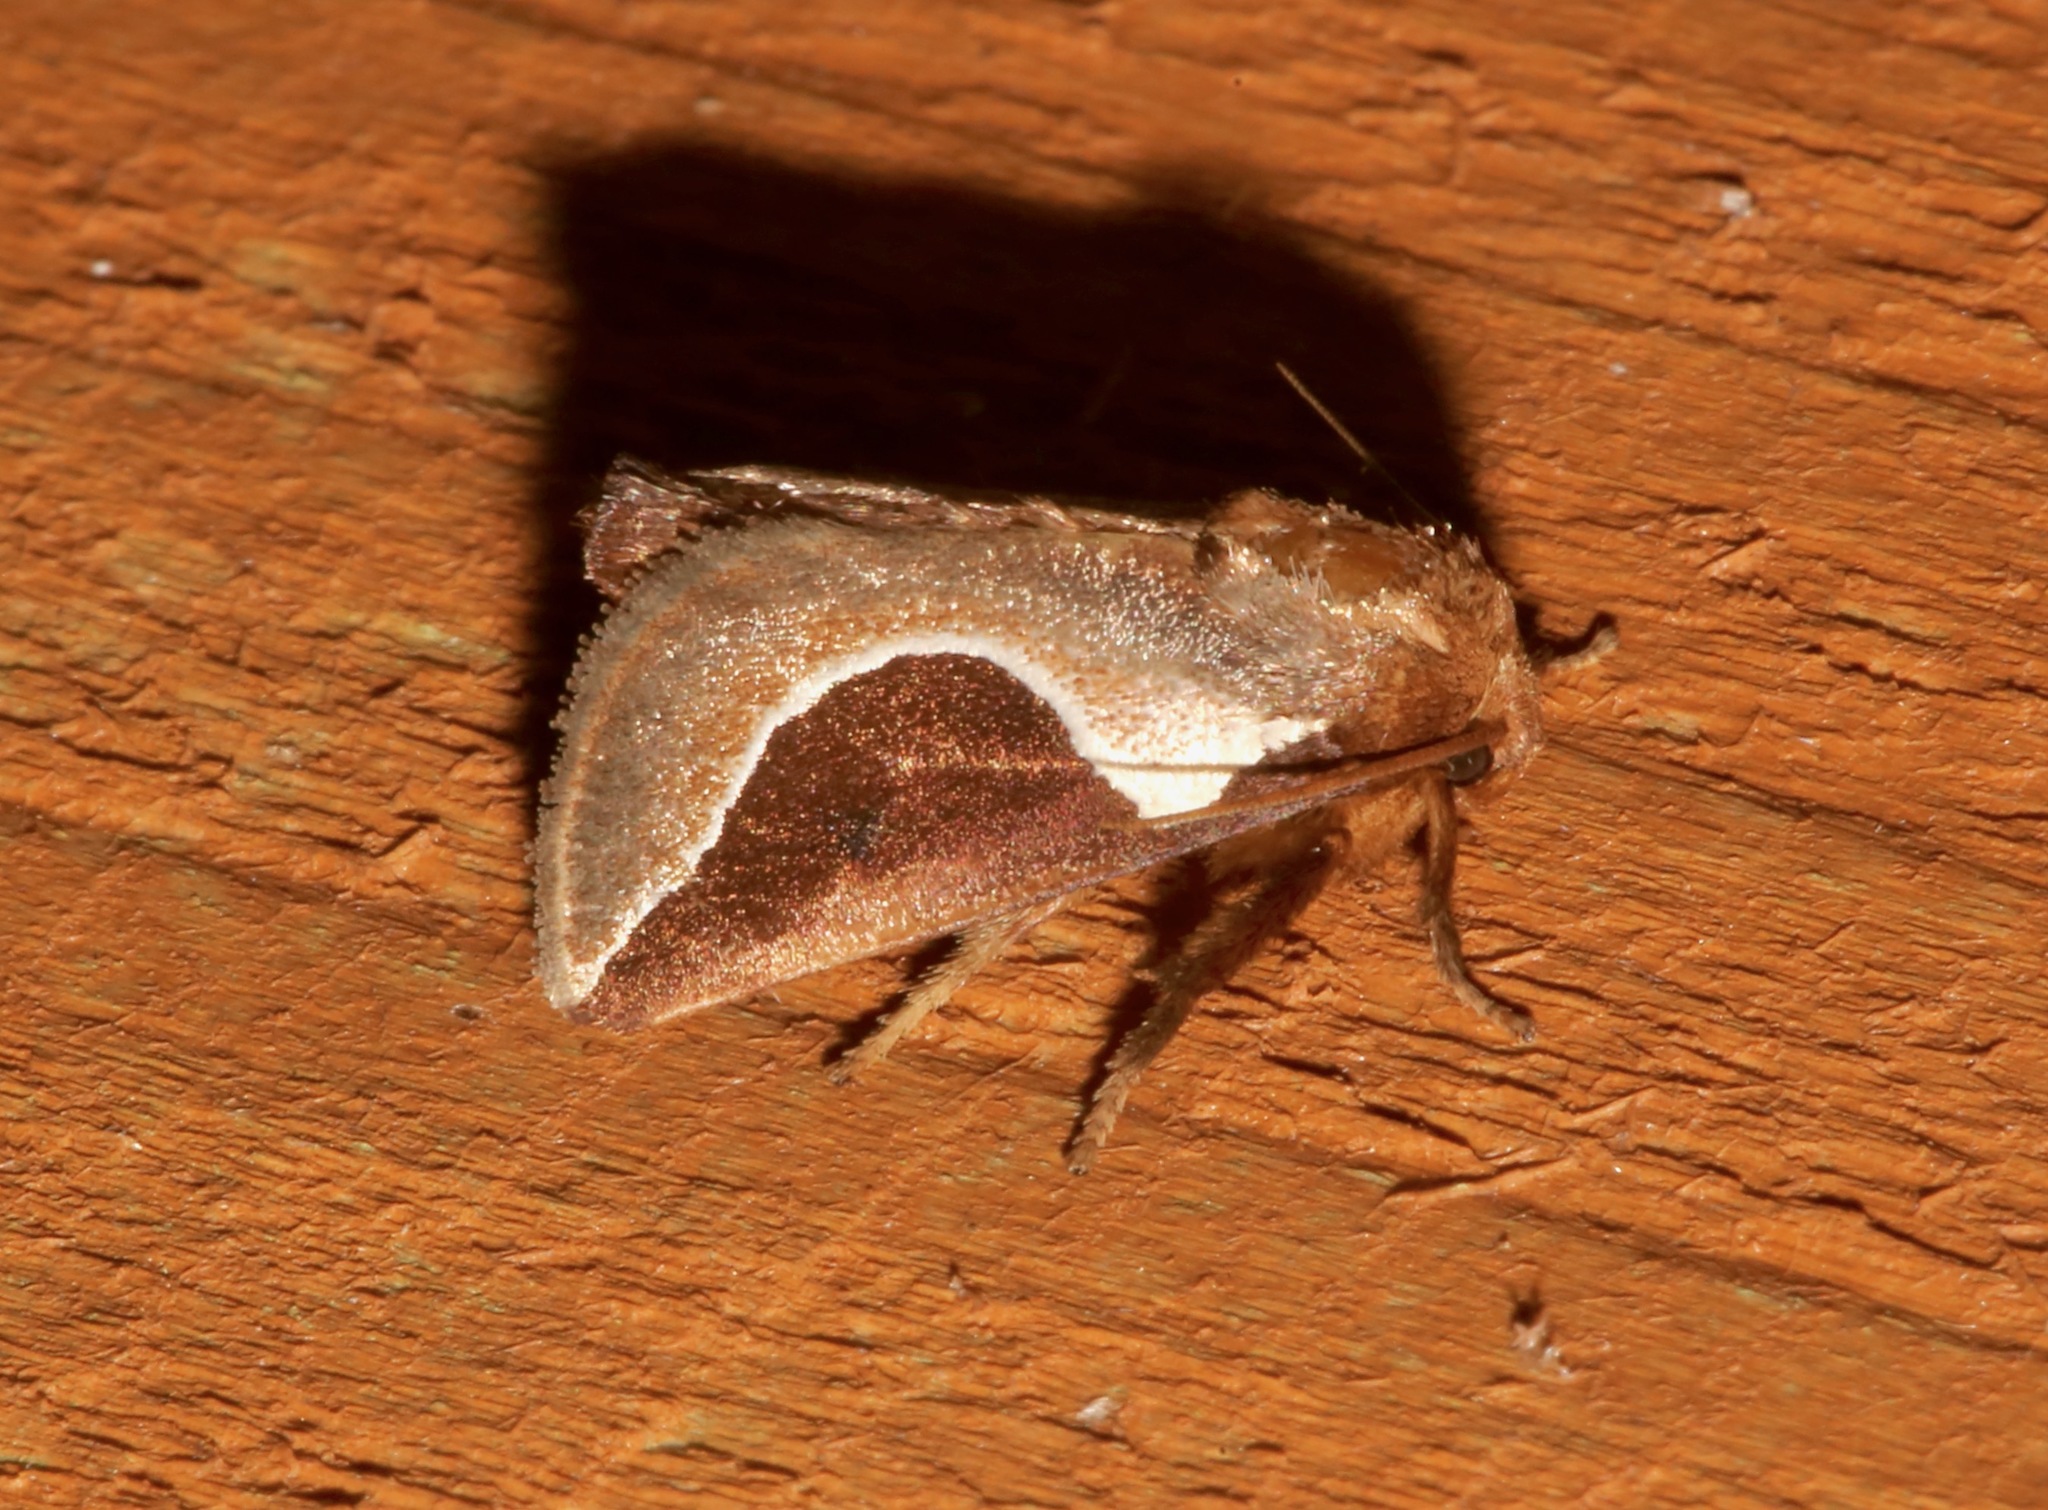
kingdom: Animalia
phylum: Arthropoda
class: Insecta
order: Lepidoptera
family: Limacodidae
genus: Prolimacodes
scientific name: Prolimacodes badia
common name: Skiff moth
